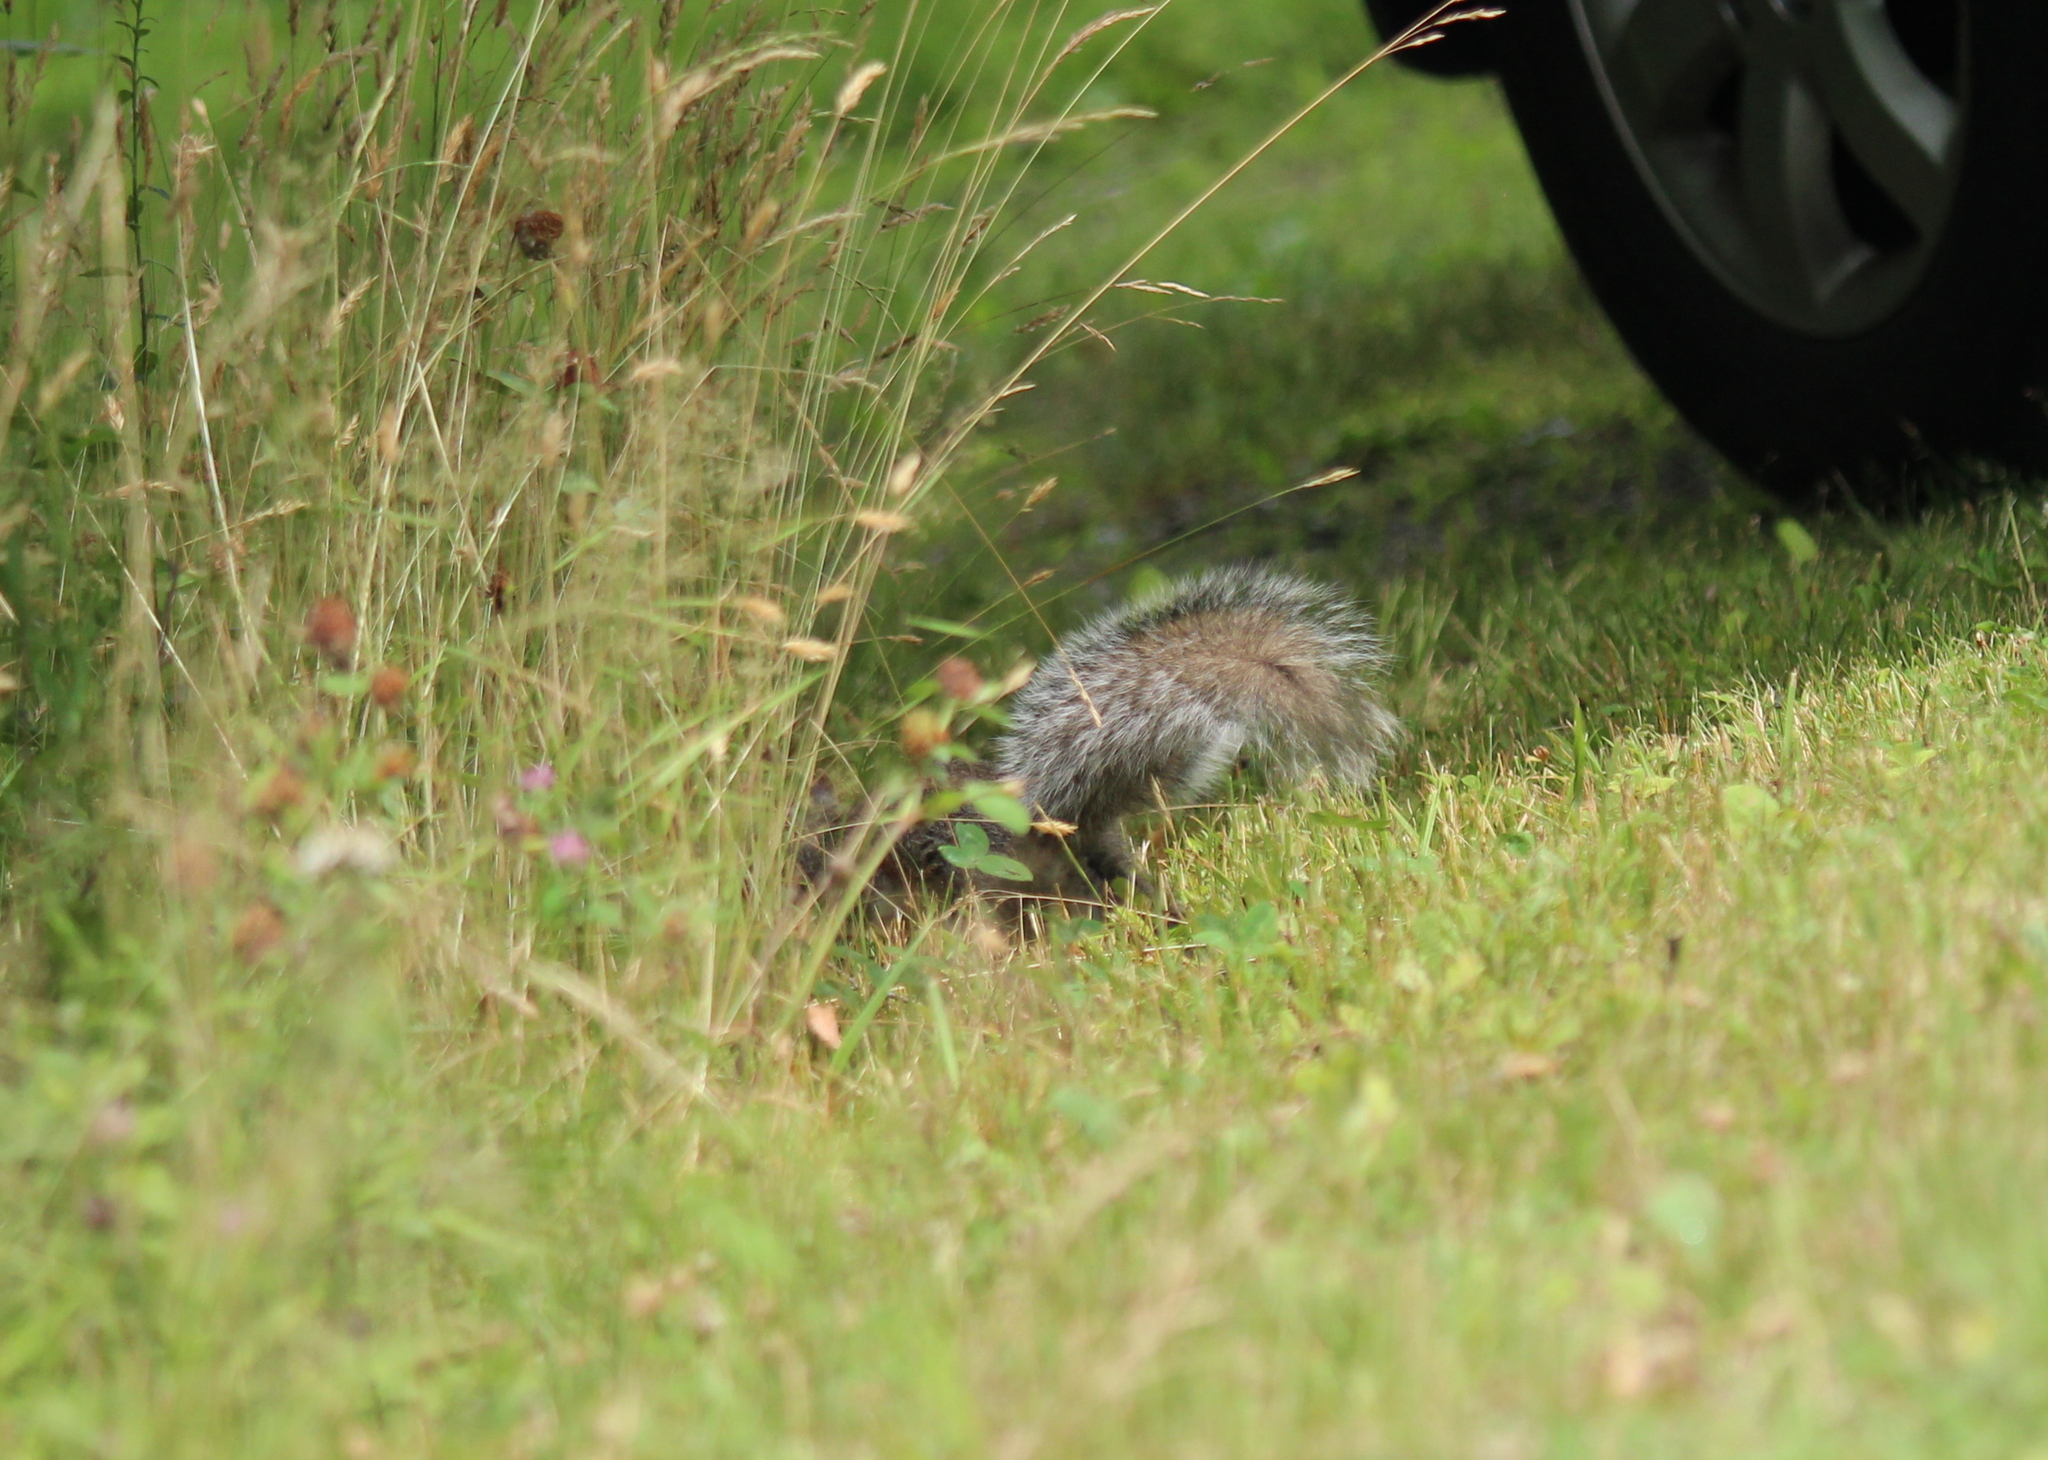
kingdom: Animalia
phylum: Chordata
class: Mammalia
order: Rodentia
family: Sciuridae
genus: Sciurus
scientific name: Sciurus carolinensis
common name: Eastern gray squirrel
